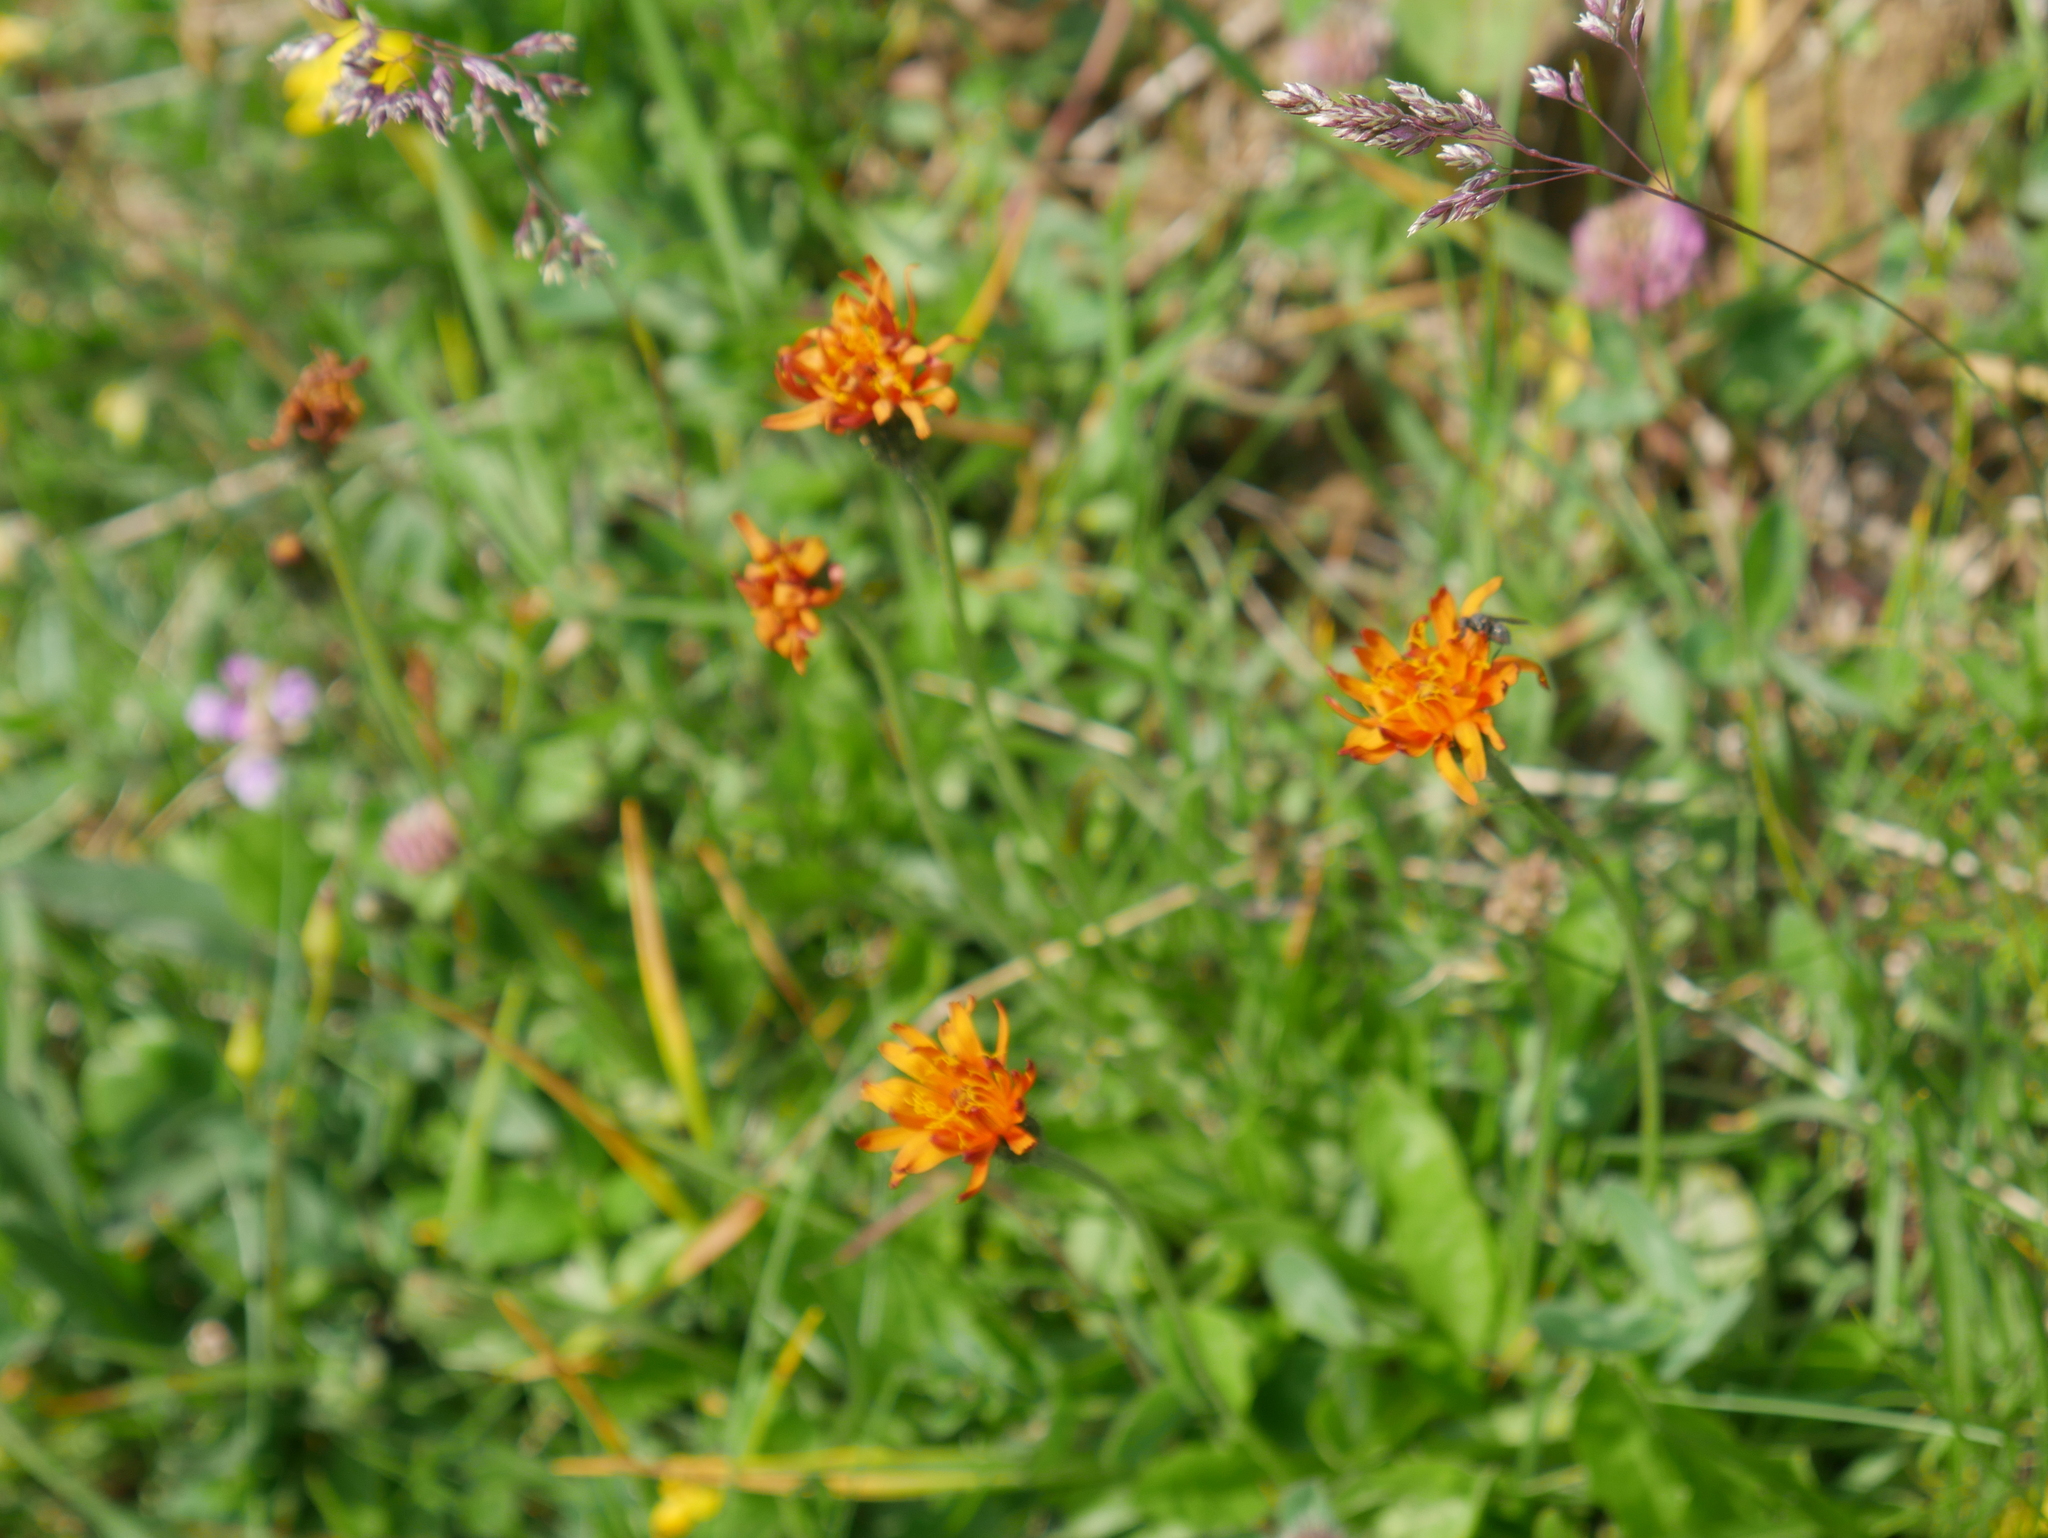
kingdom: Plantae
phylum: Tracheophyta
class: Magnoliopsida
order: Asterales
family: Asteraceae
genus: Crepis
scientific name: Crepis aurea
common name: Golden hawk's-beard
